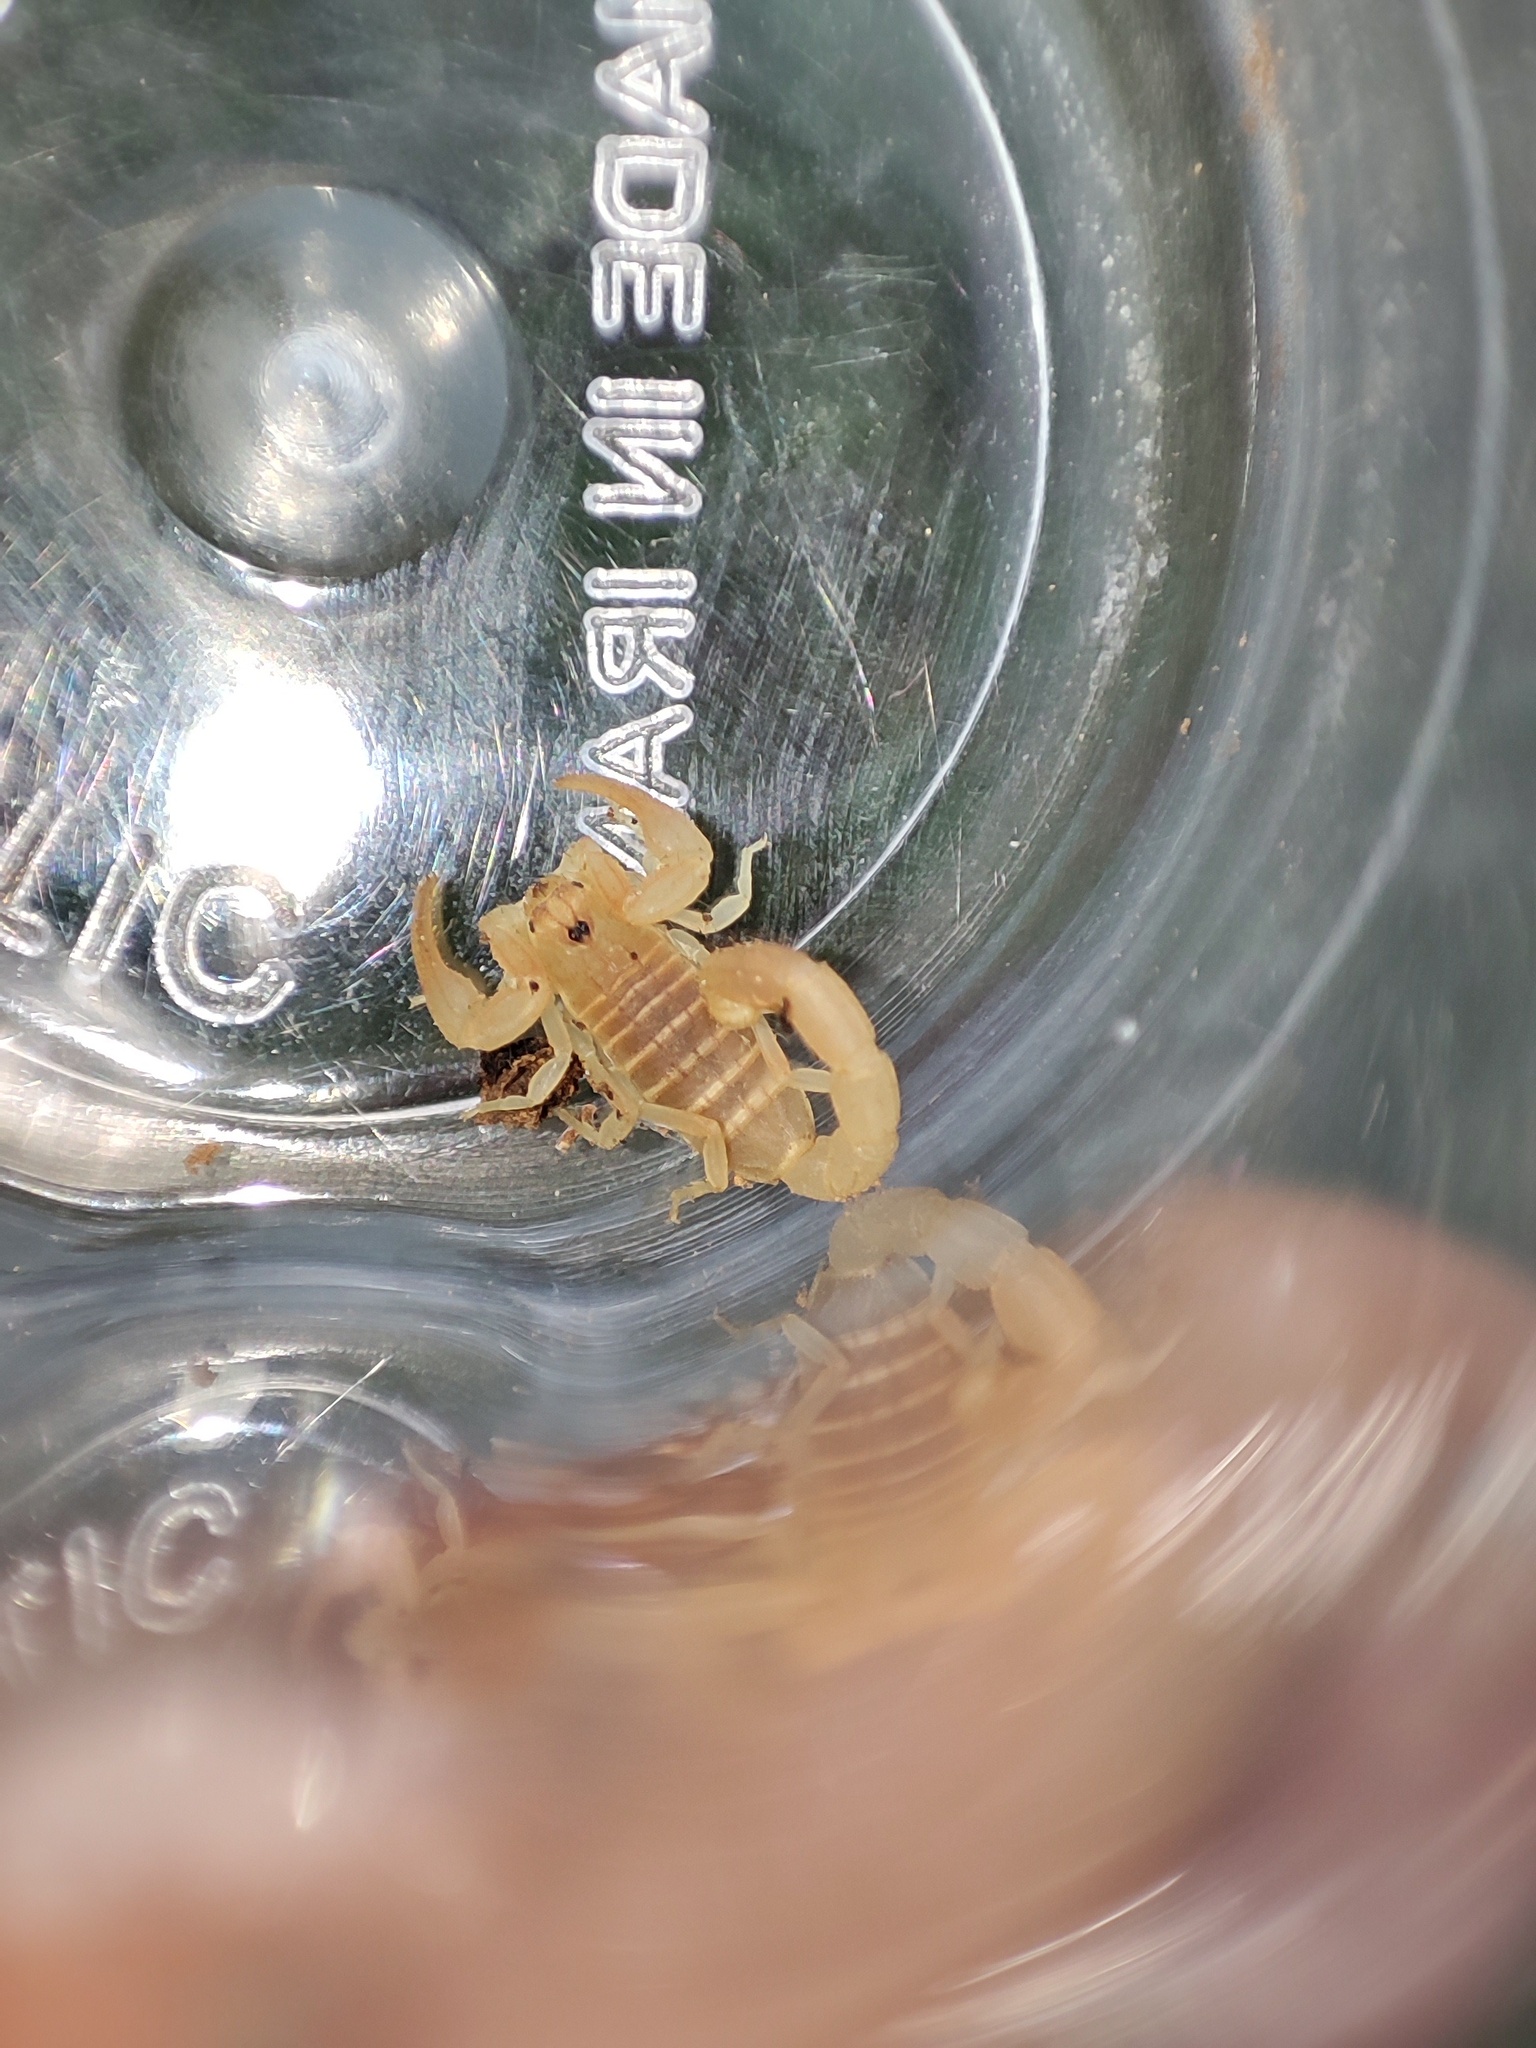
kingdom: Animalia
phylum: Arthropoda
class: Arachnida
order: Scorpiones
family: Buthidae
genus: Razianus
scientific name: Razianus zarudnyi
